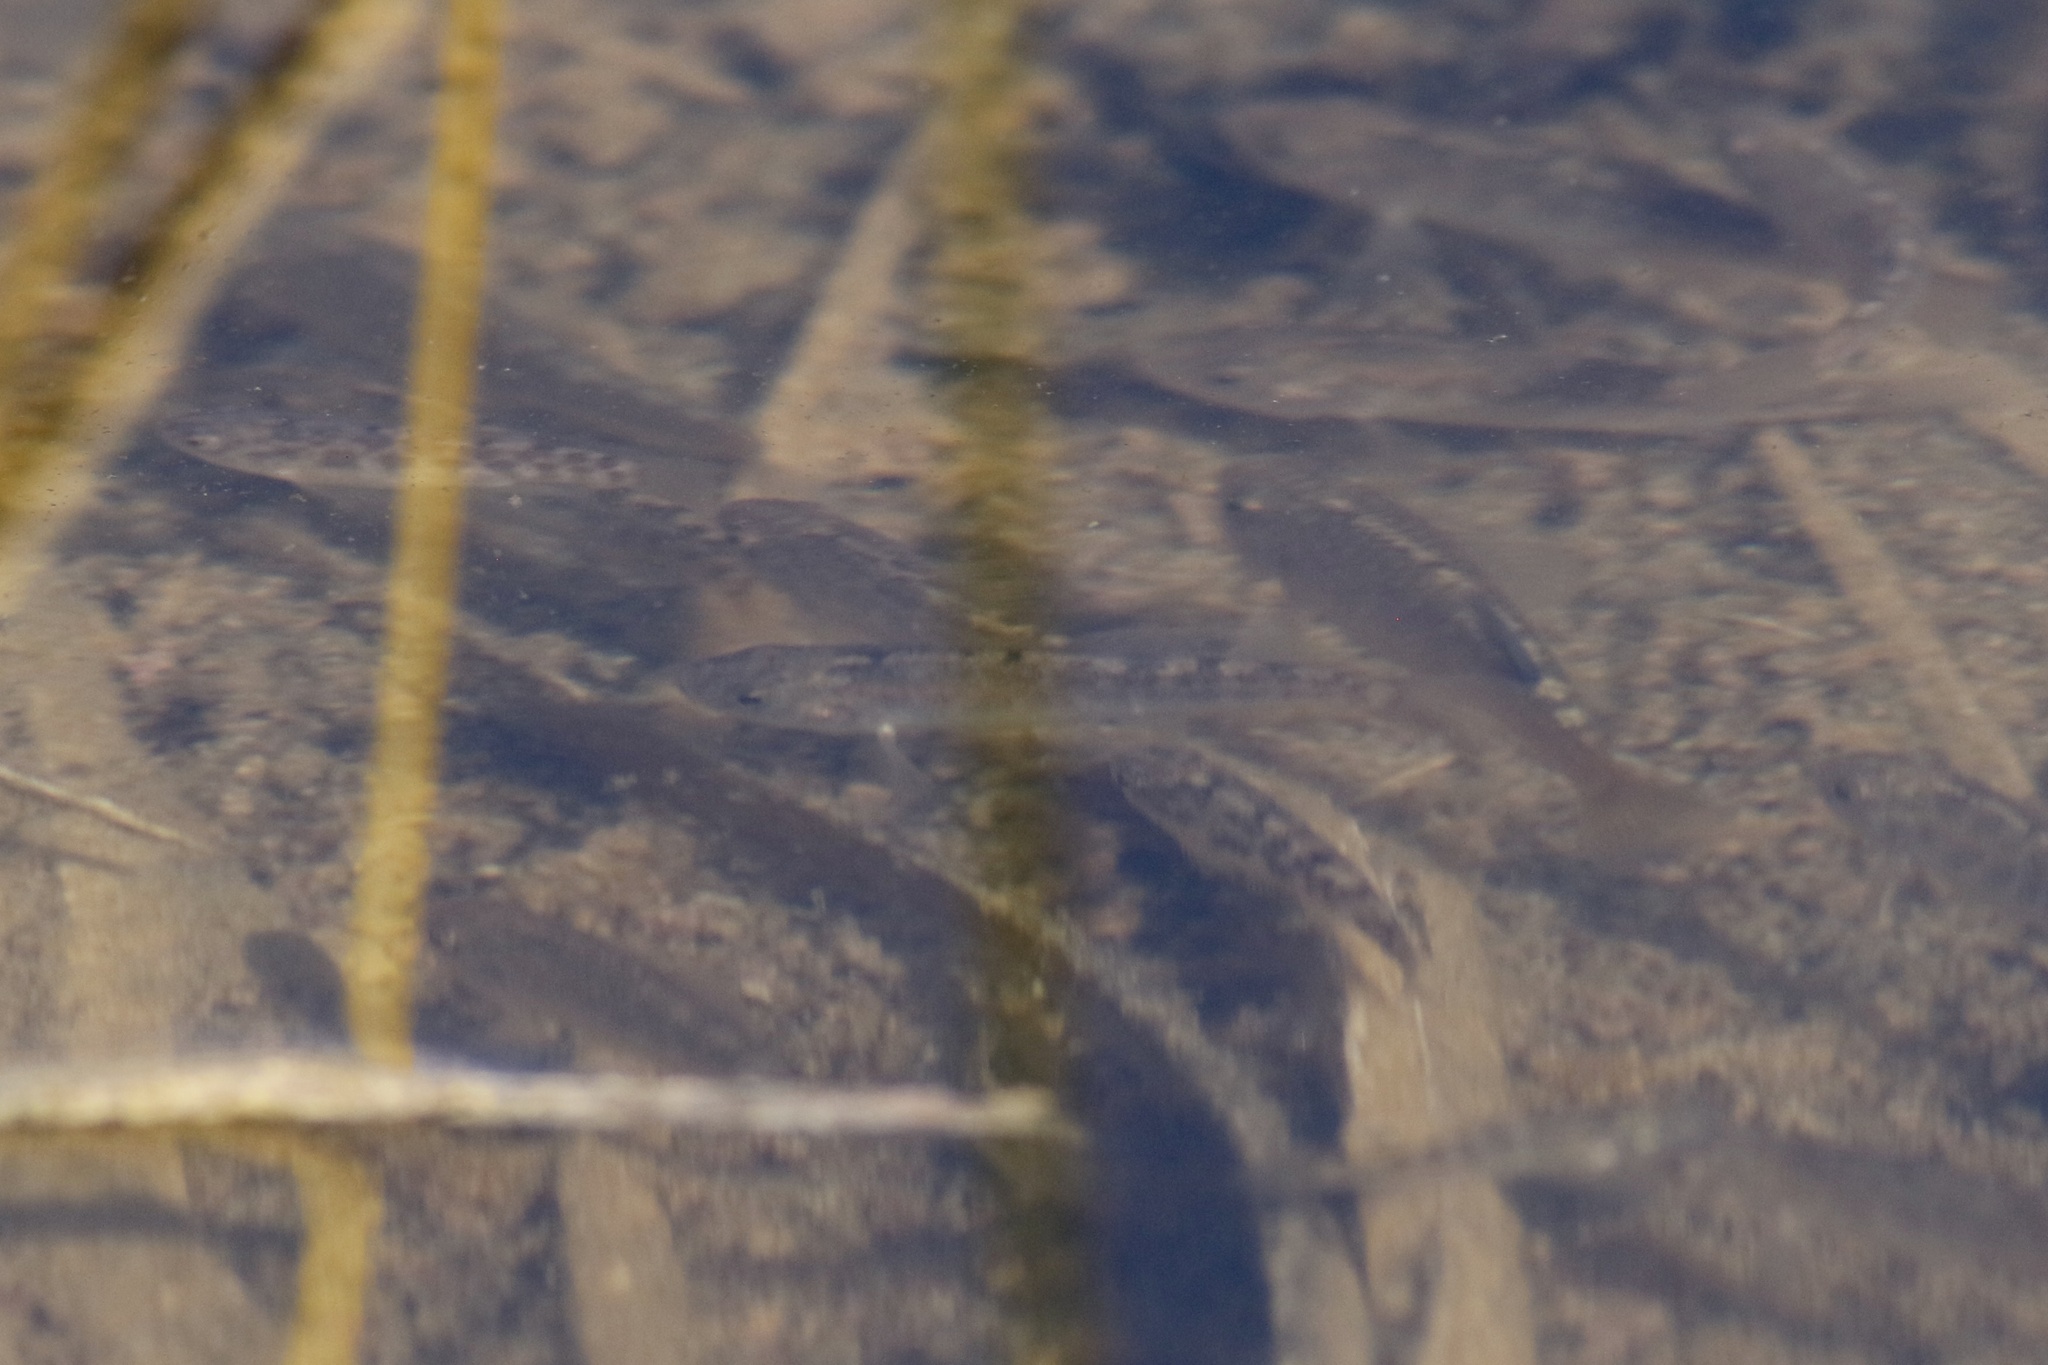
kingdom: Animalia
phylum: Chordata
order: Cyprinodontiformes
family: Cyprinodontidae
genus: Cyprinodon
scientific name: Cyprinodon macularius
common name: Desert pupfish
